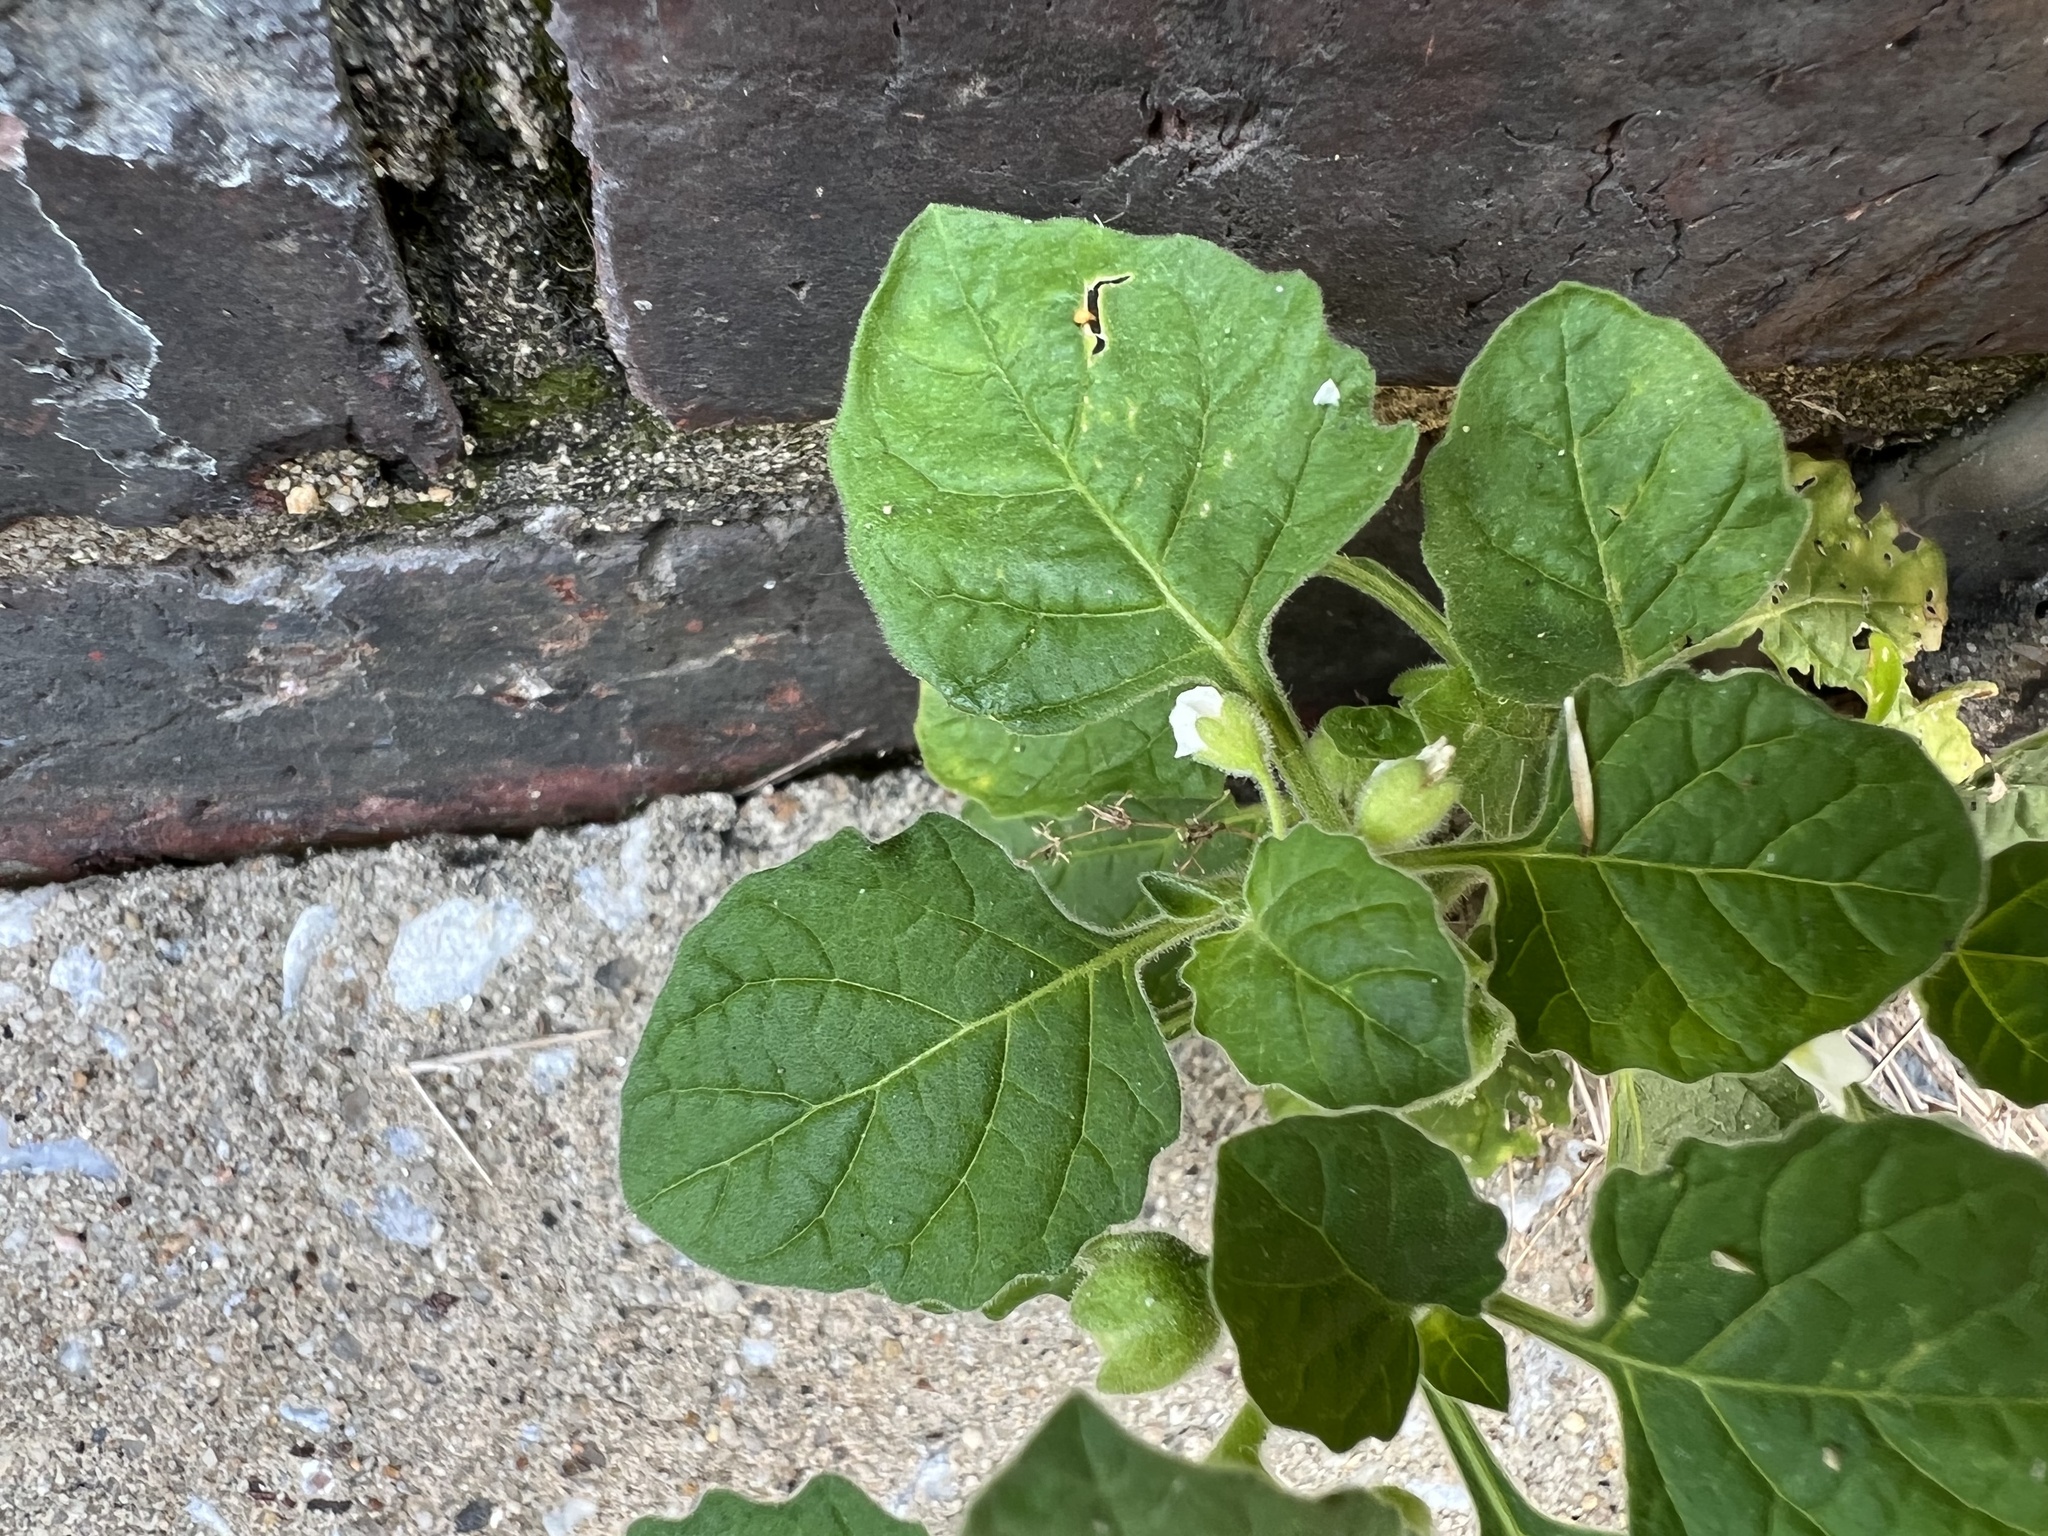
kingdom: Plantae
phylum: Tracheophyta
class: Magnoliopsida
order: Solanales
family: Solanaceae
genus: Solanum
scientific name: Solanum sarrachoides
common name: Leafy-fruited nightshade
